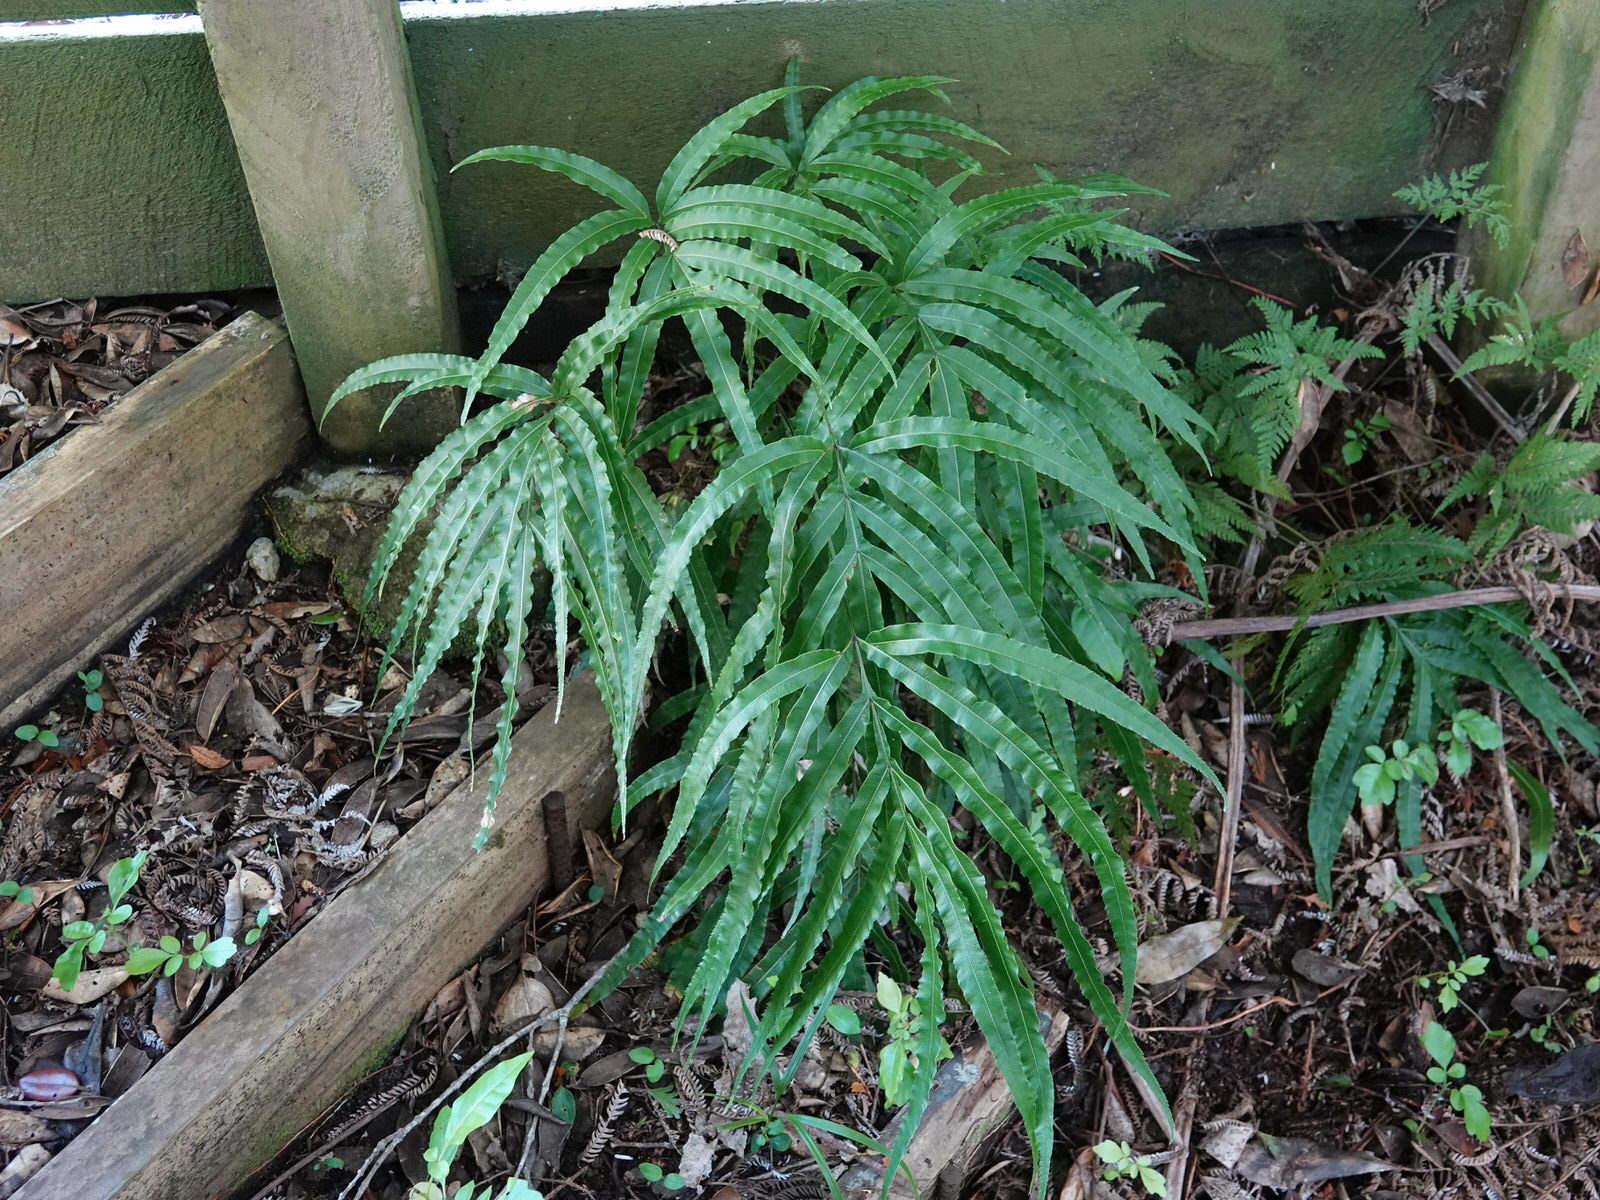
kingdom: Plantae
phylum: Tracheophyta
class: Polypodiopsida
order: Polypodiales
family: Pteridaceae
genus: Pteris
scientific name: Pteris cretica
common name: Ribbon fern
